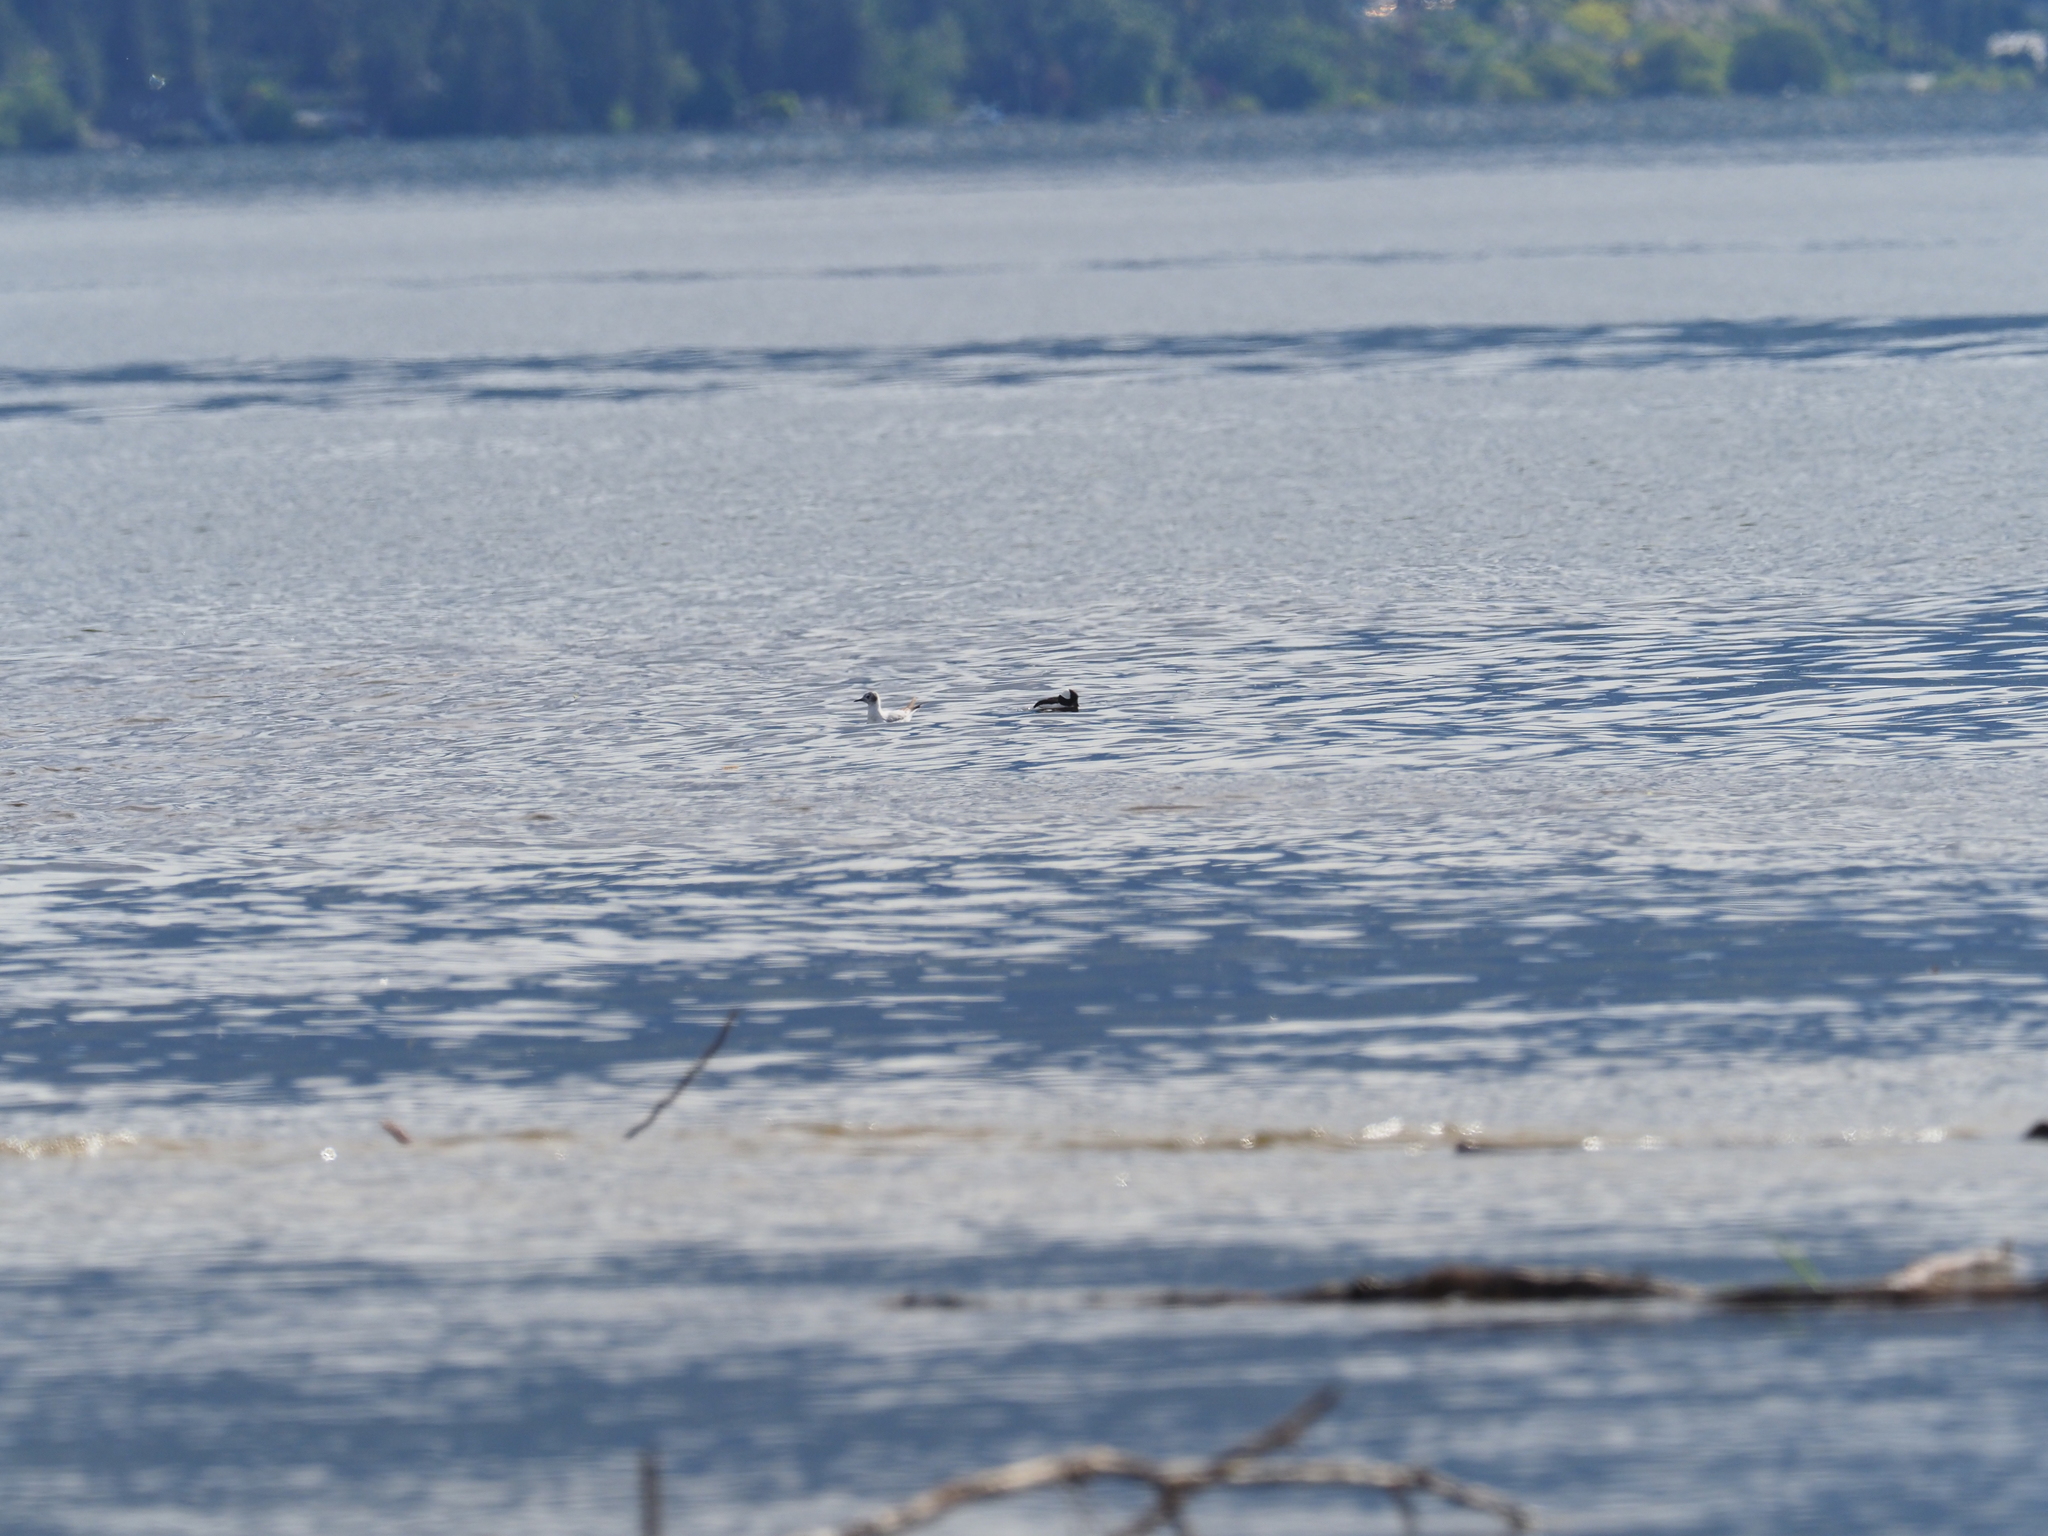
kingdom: Animalia
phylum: Chordata
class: Aves
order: Anseriformes
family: Anatidae
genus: Bucephala
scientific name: Bucephala albeola
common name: Bufflehead
